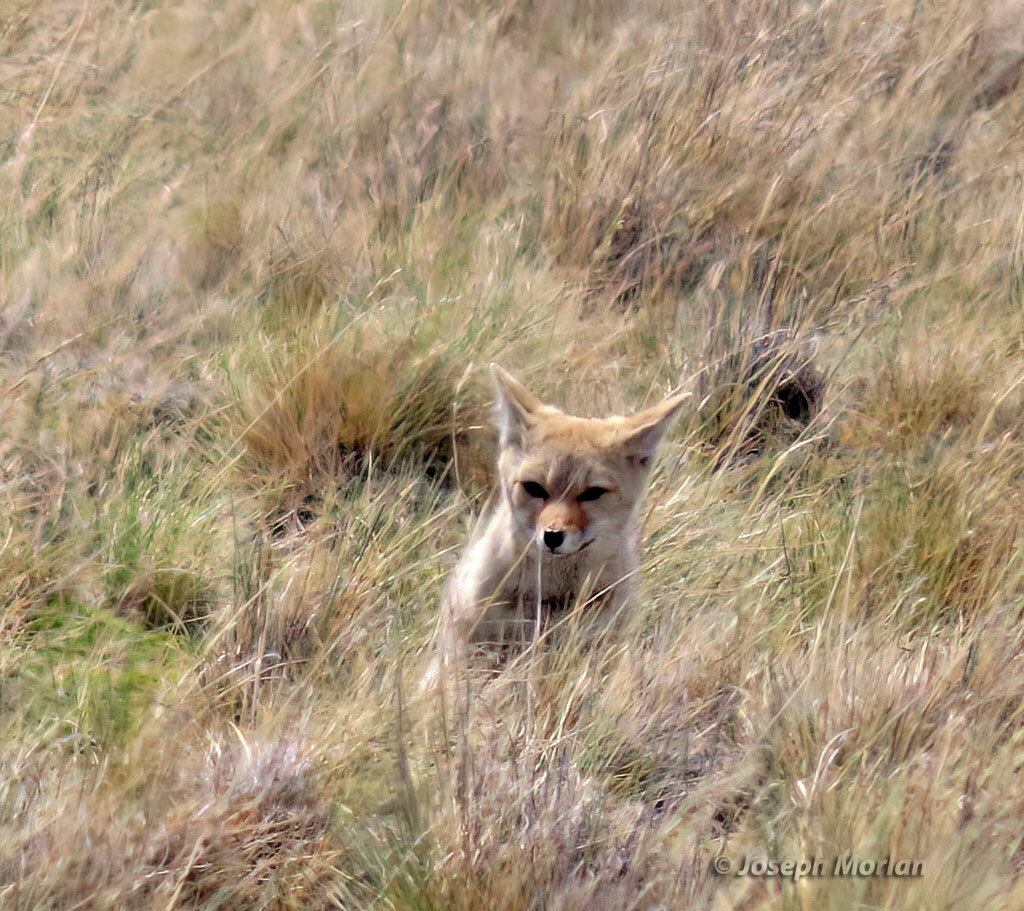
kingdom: Animalia
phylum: Chordata
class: Mammalia
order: Carnivora
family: Canidae
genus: Lycalopex
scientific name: Lycalopex gymnocercus
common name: Pampas fox
